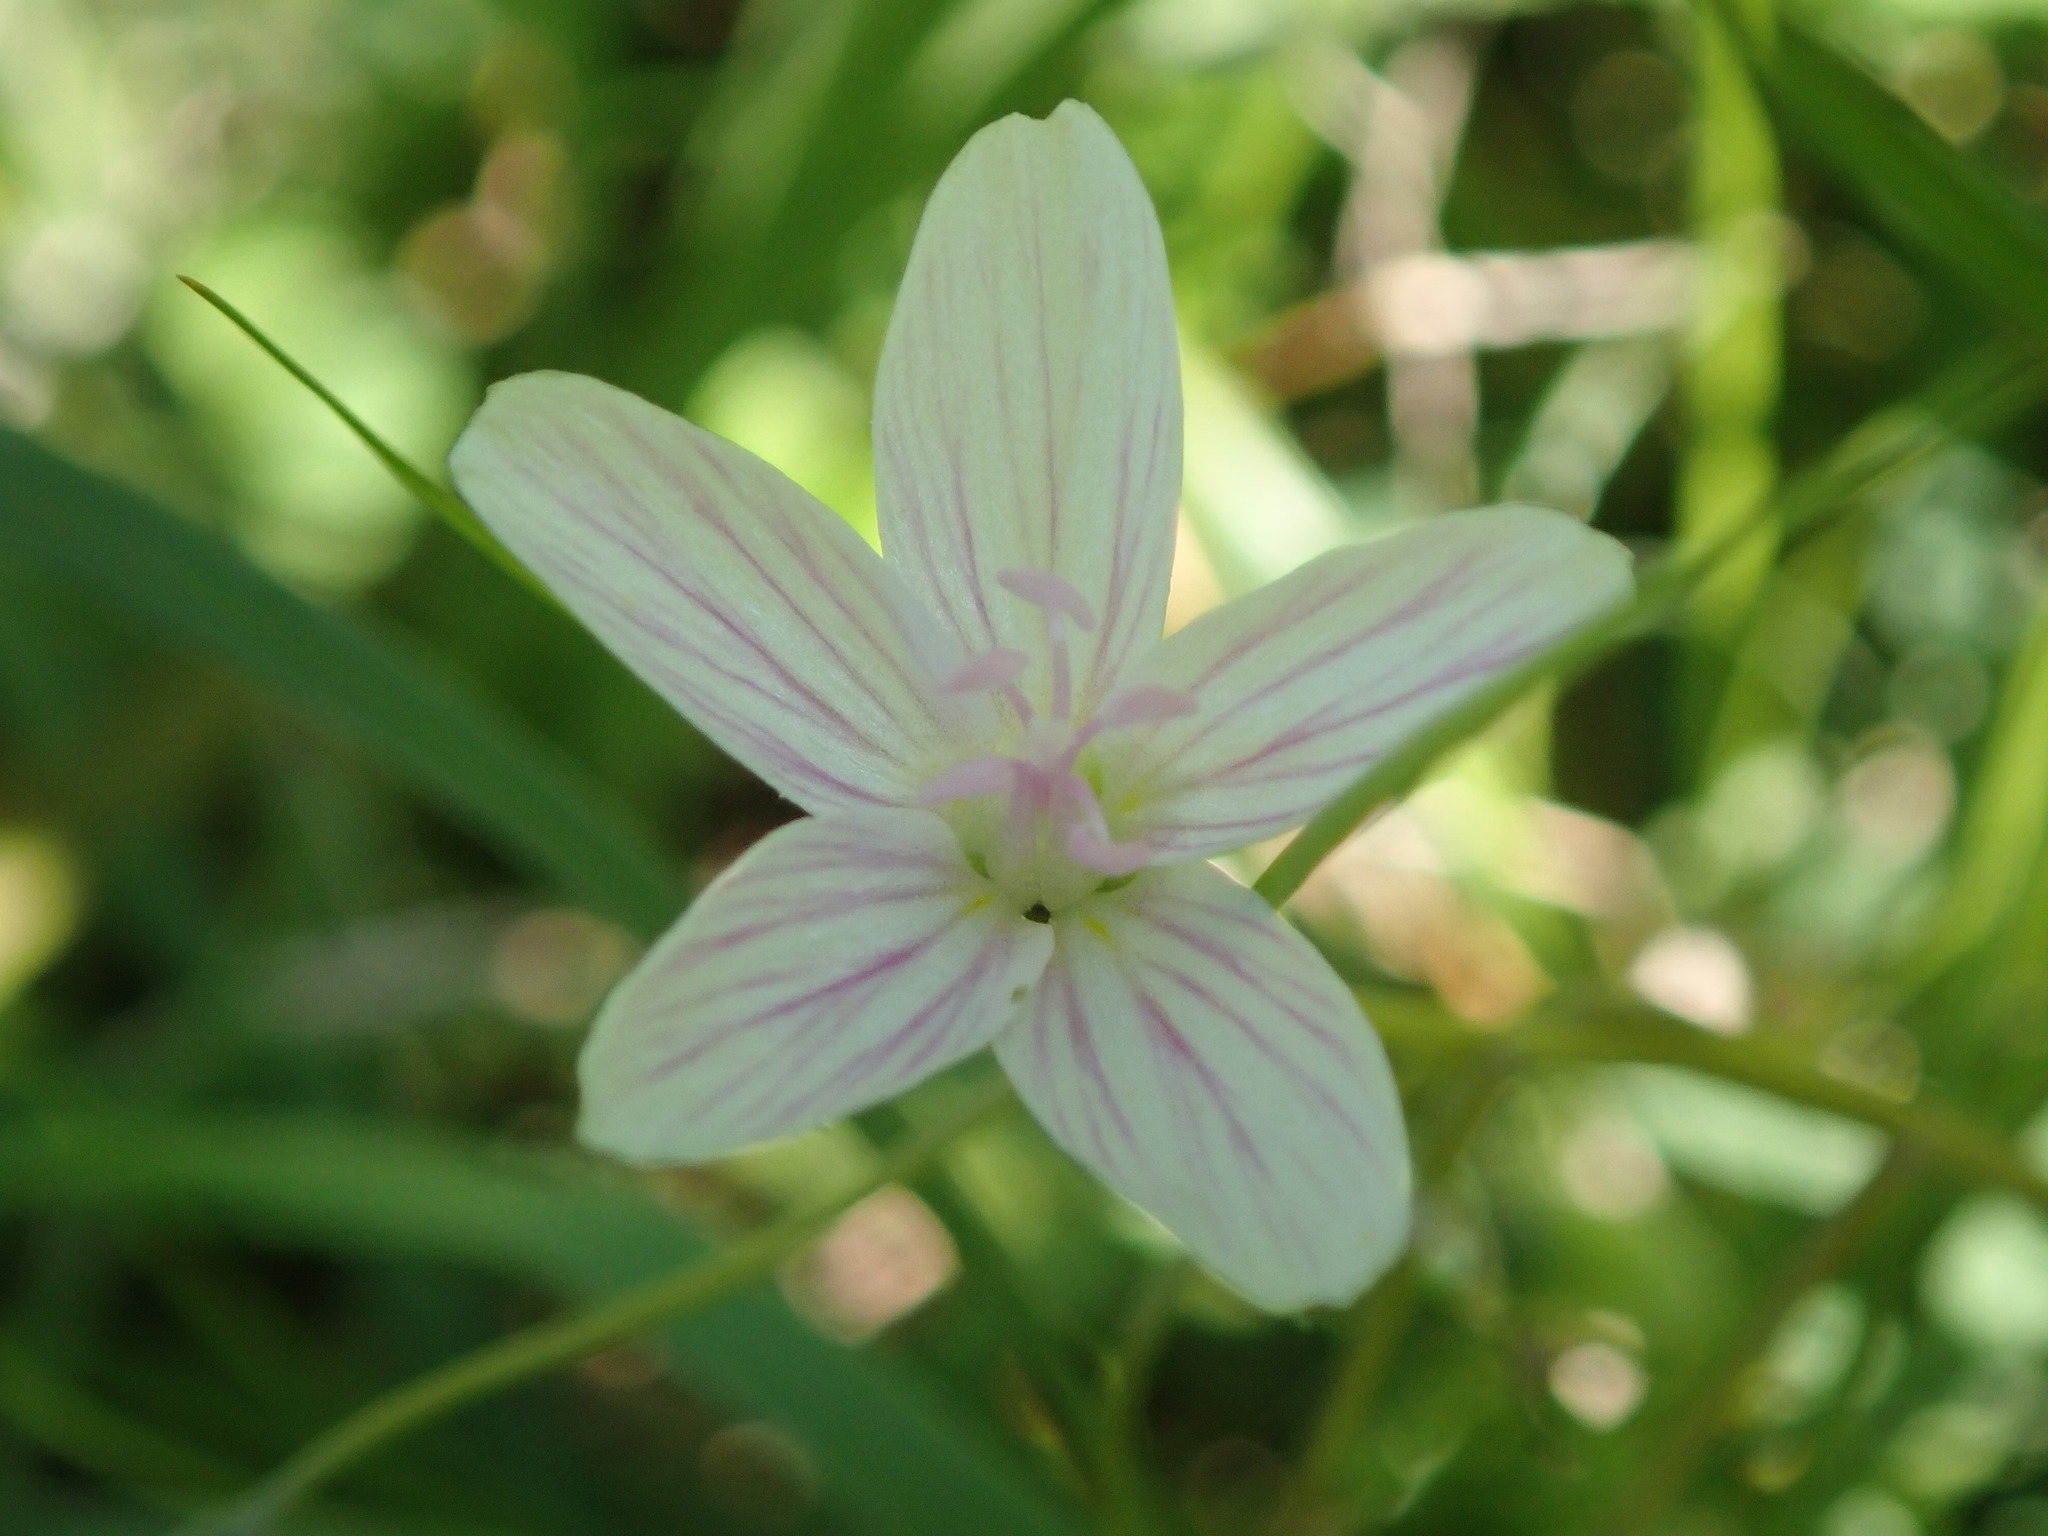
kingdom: Plantae
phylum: Tracheophyta
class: Magnoliopsida
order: Caryophyllales
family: Montiaceae
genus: Claytonia
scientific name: Claytonia virginica
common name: Virginia springbeauty
